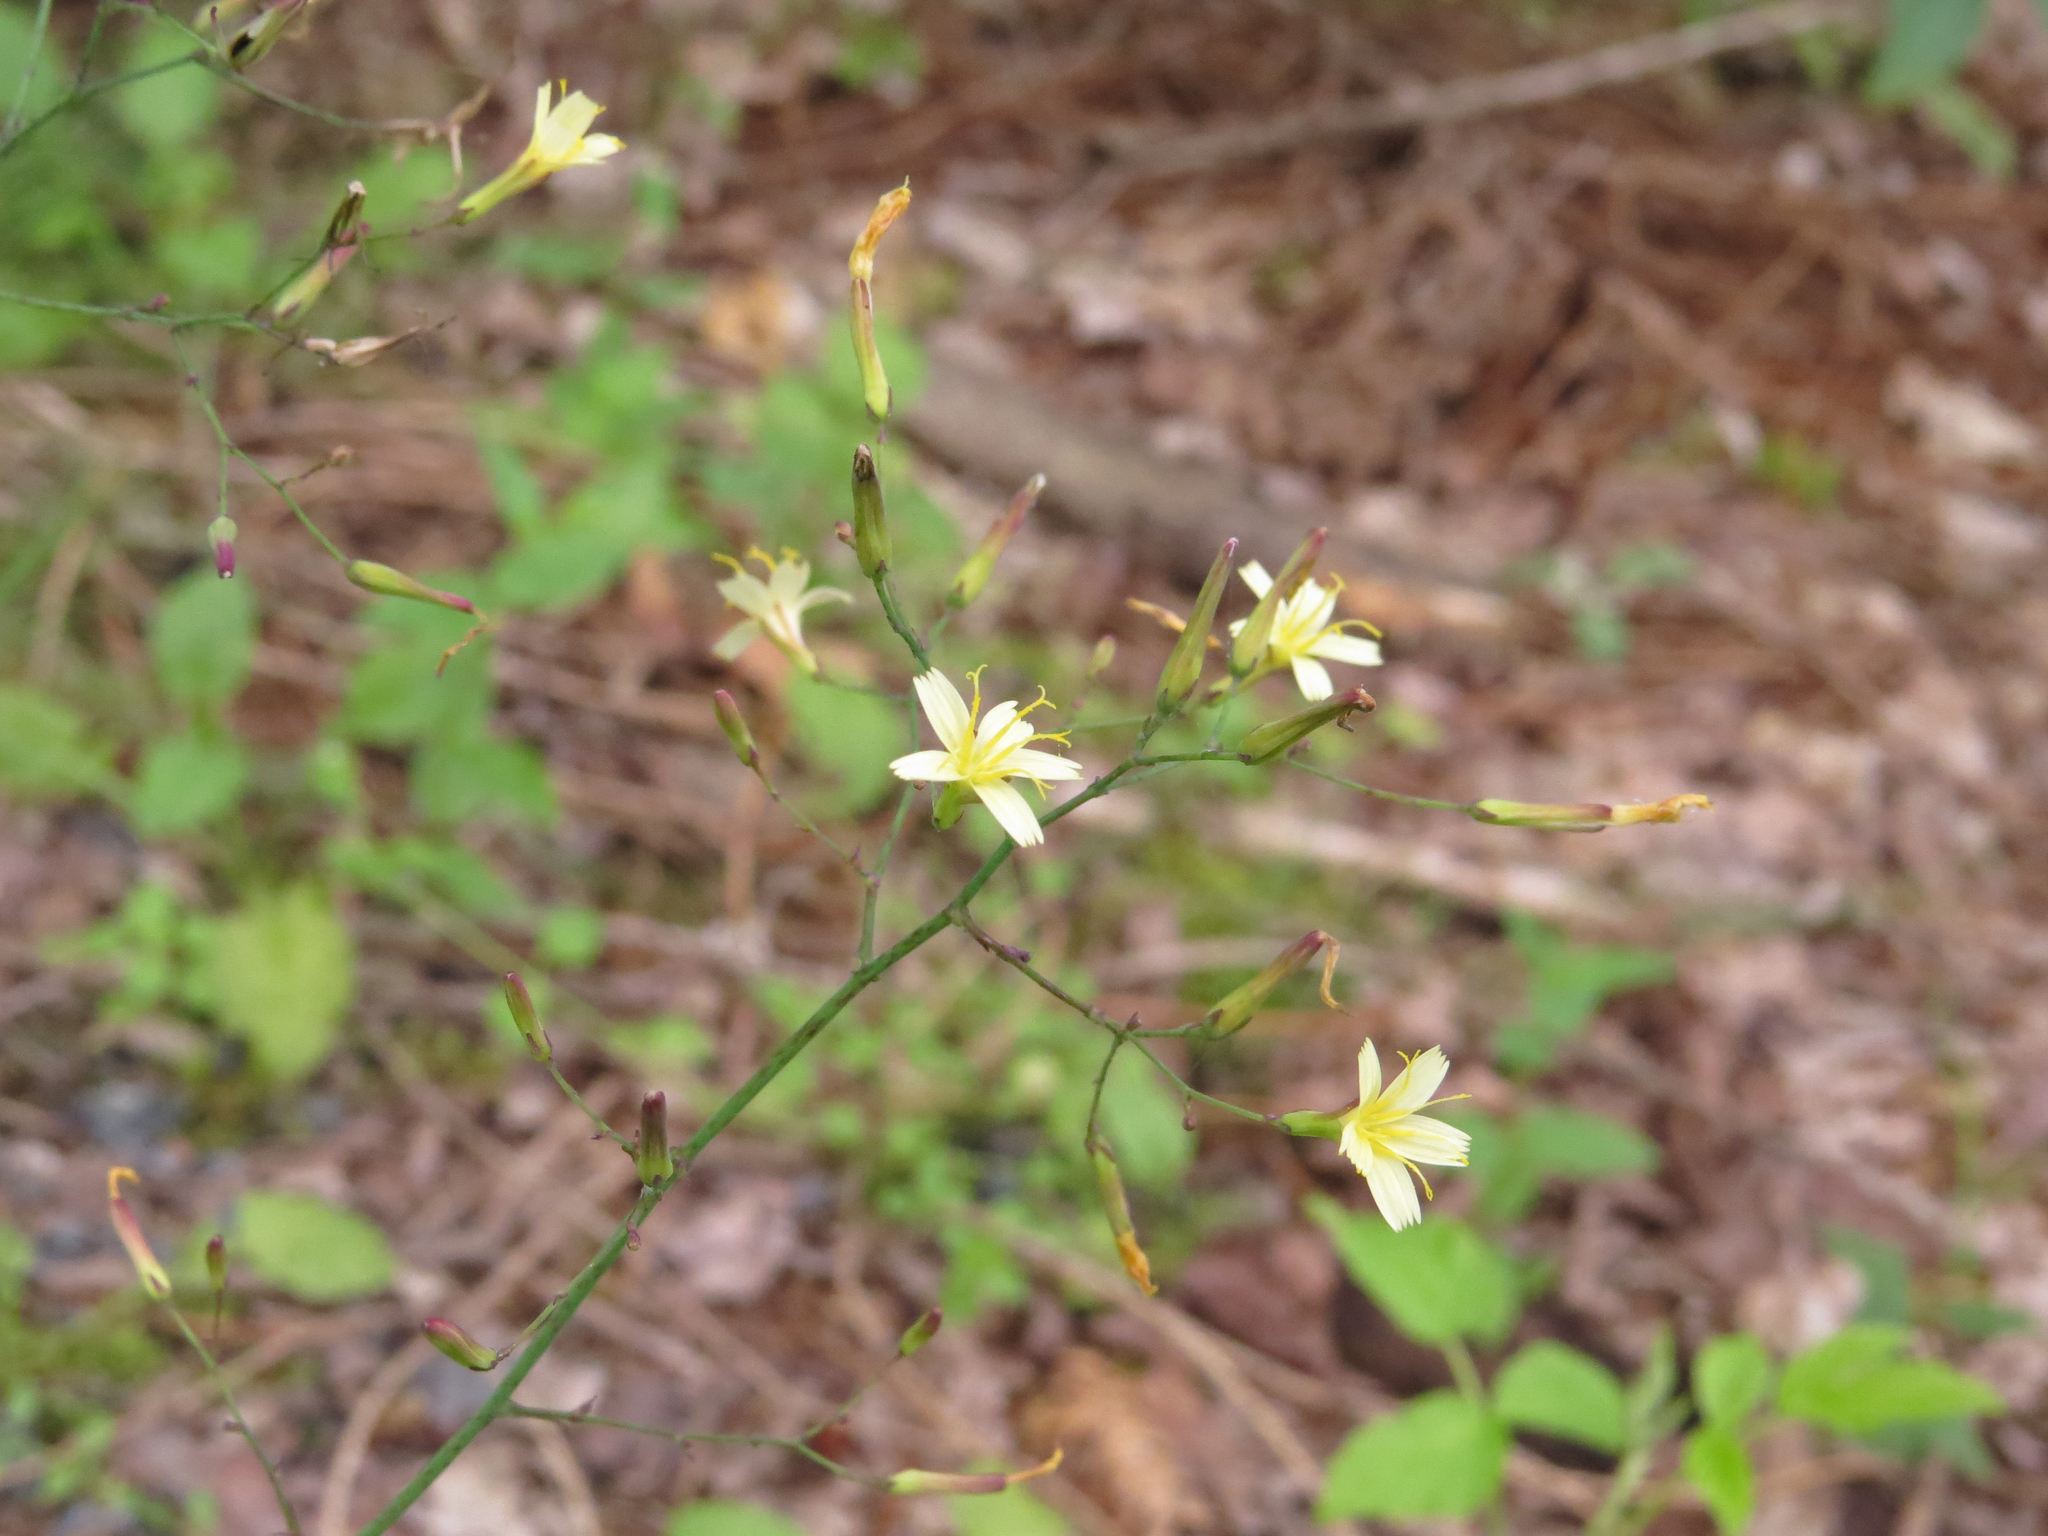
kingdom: Plantae
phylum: Tracheophyta
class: Magnoliopsida
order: Asterales
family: Asteraceae
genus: Mycelis
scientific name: Mycelis muralis
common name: Wall lettuce
